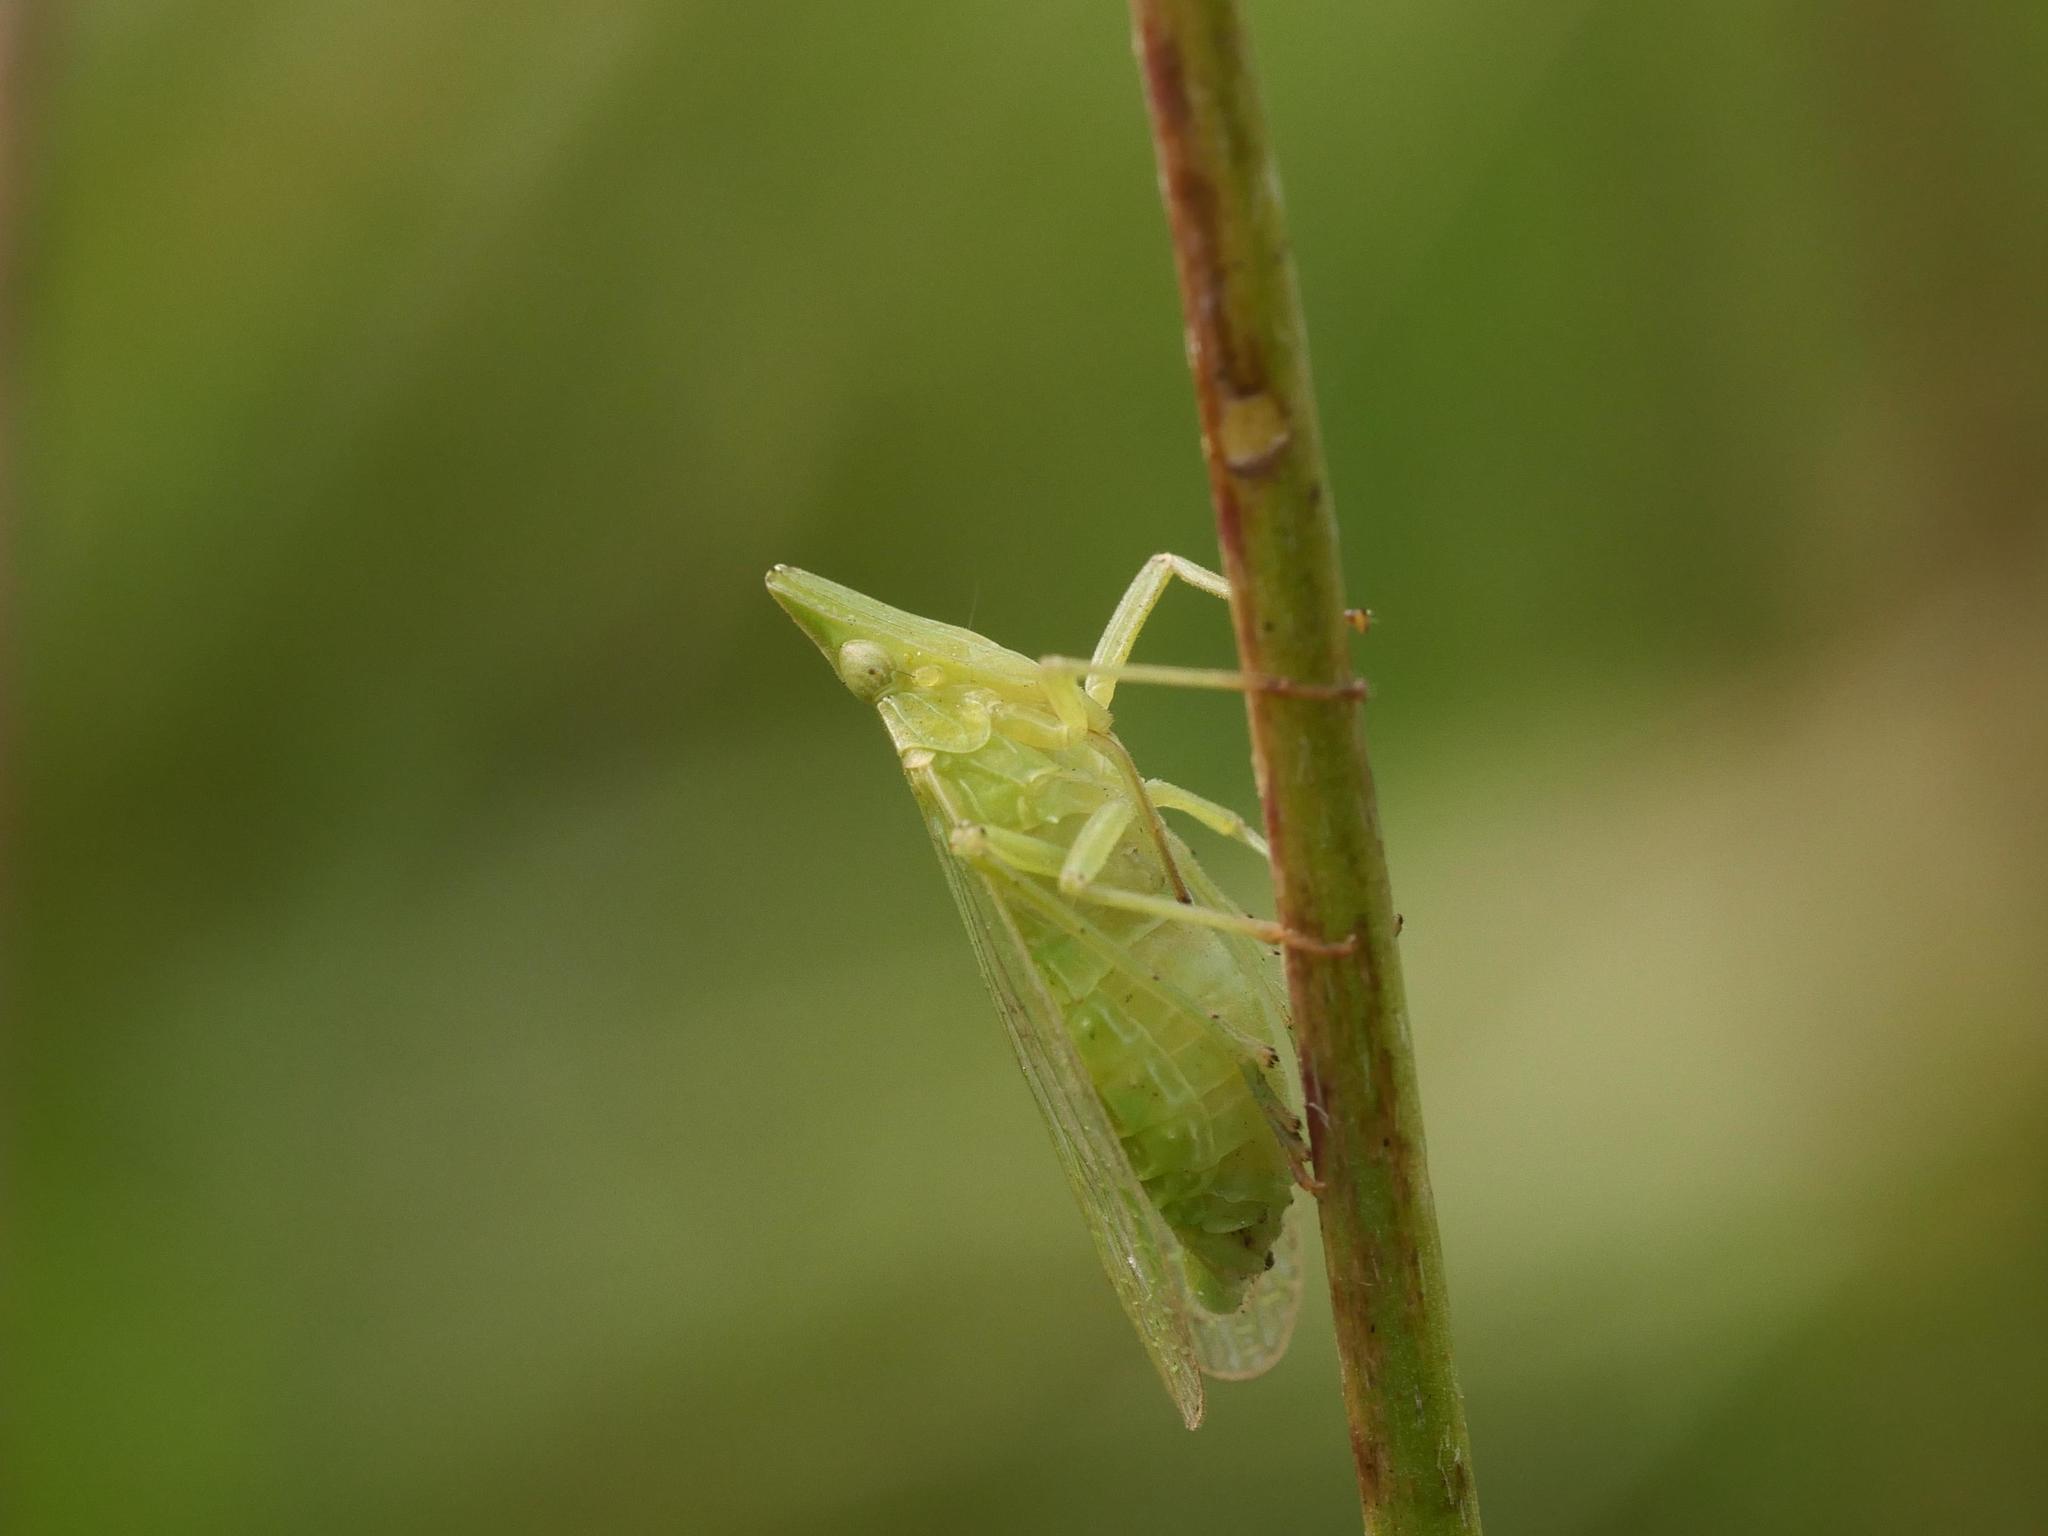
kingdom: Animalia
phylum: Arthropoda
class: Insecta
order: Hemiptera
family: Dictyopharidae
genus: Dictyophara
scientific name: Dictyophara europaea
